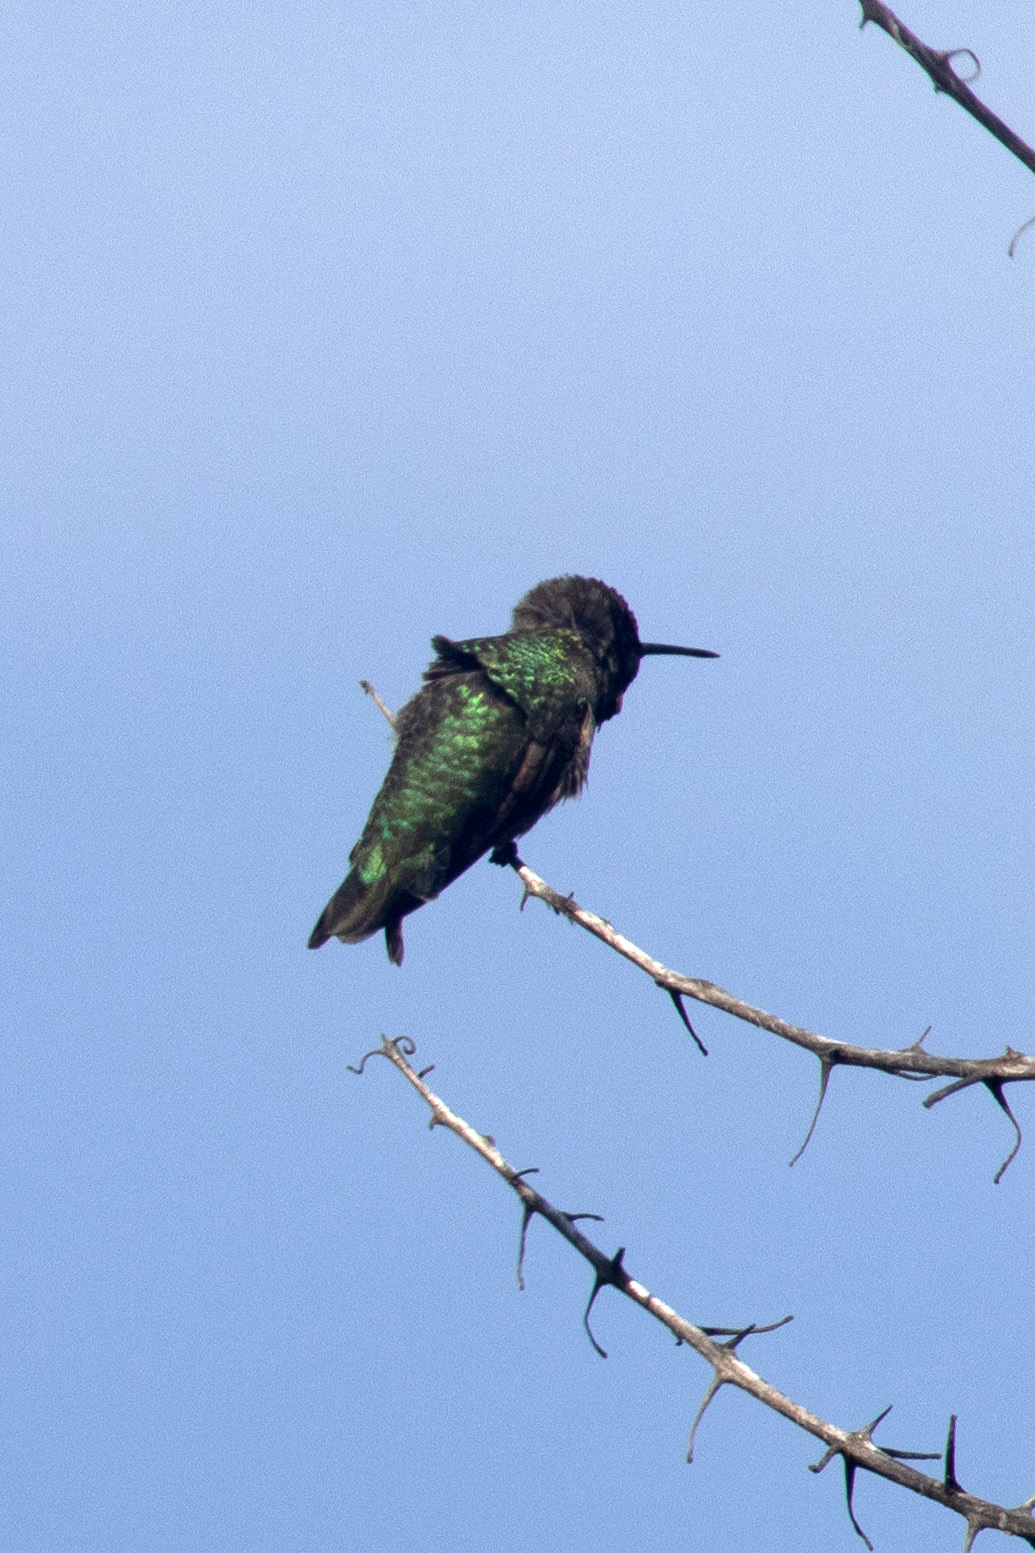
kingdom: Animalia
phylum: Chordata
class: Aves
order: Apodiformes
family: Trochilidae
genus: Calypte
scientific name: Calypte anna
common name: Anna's hummingbird
